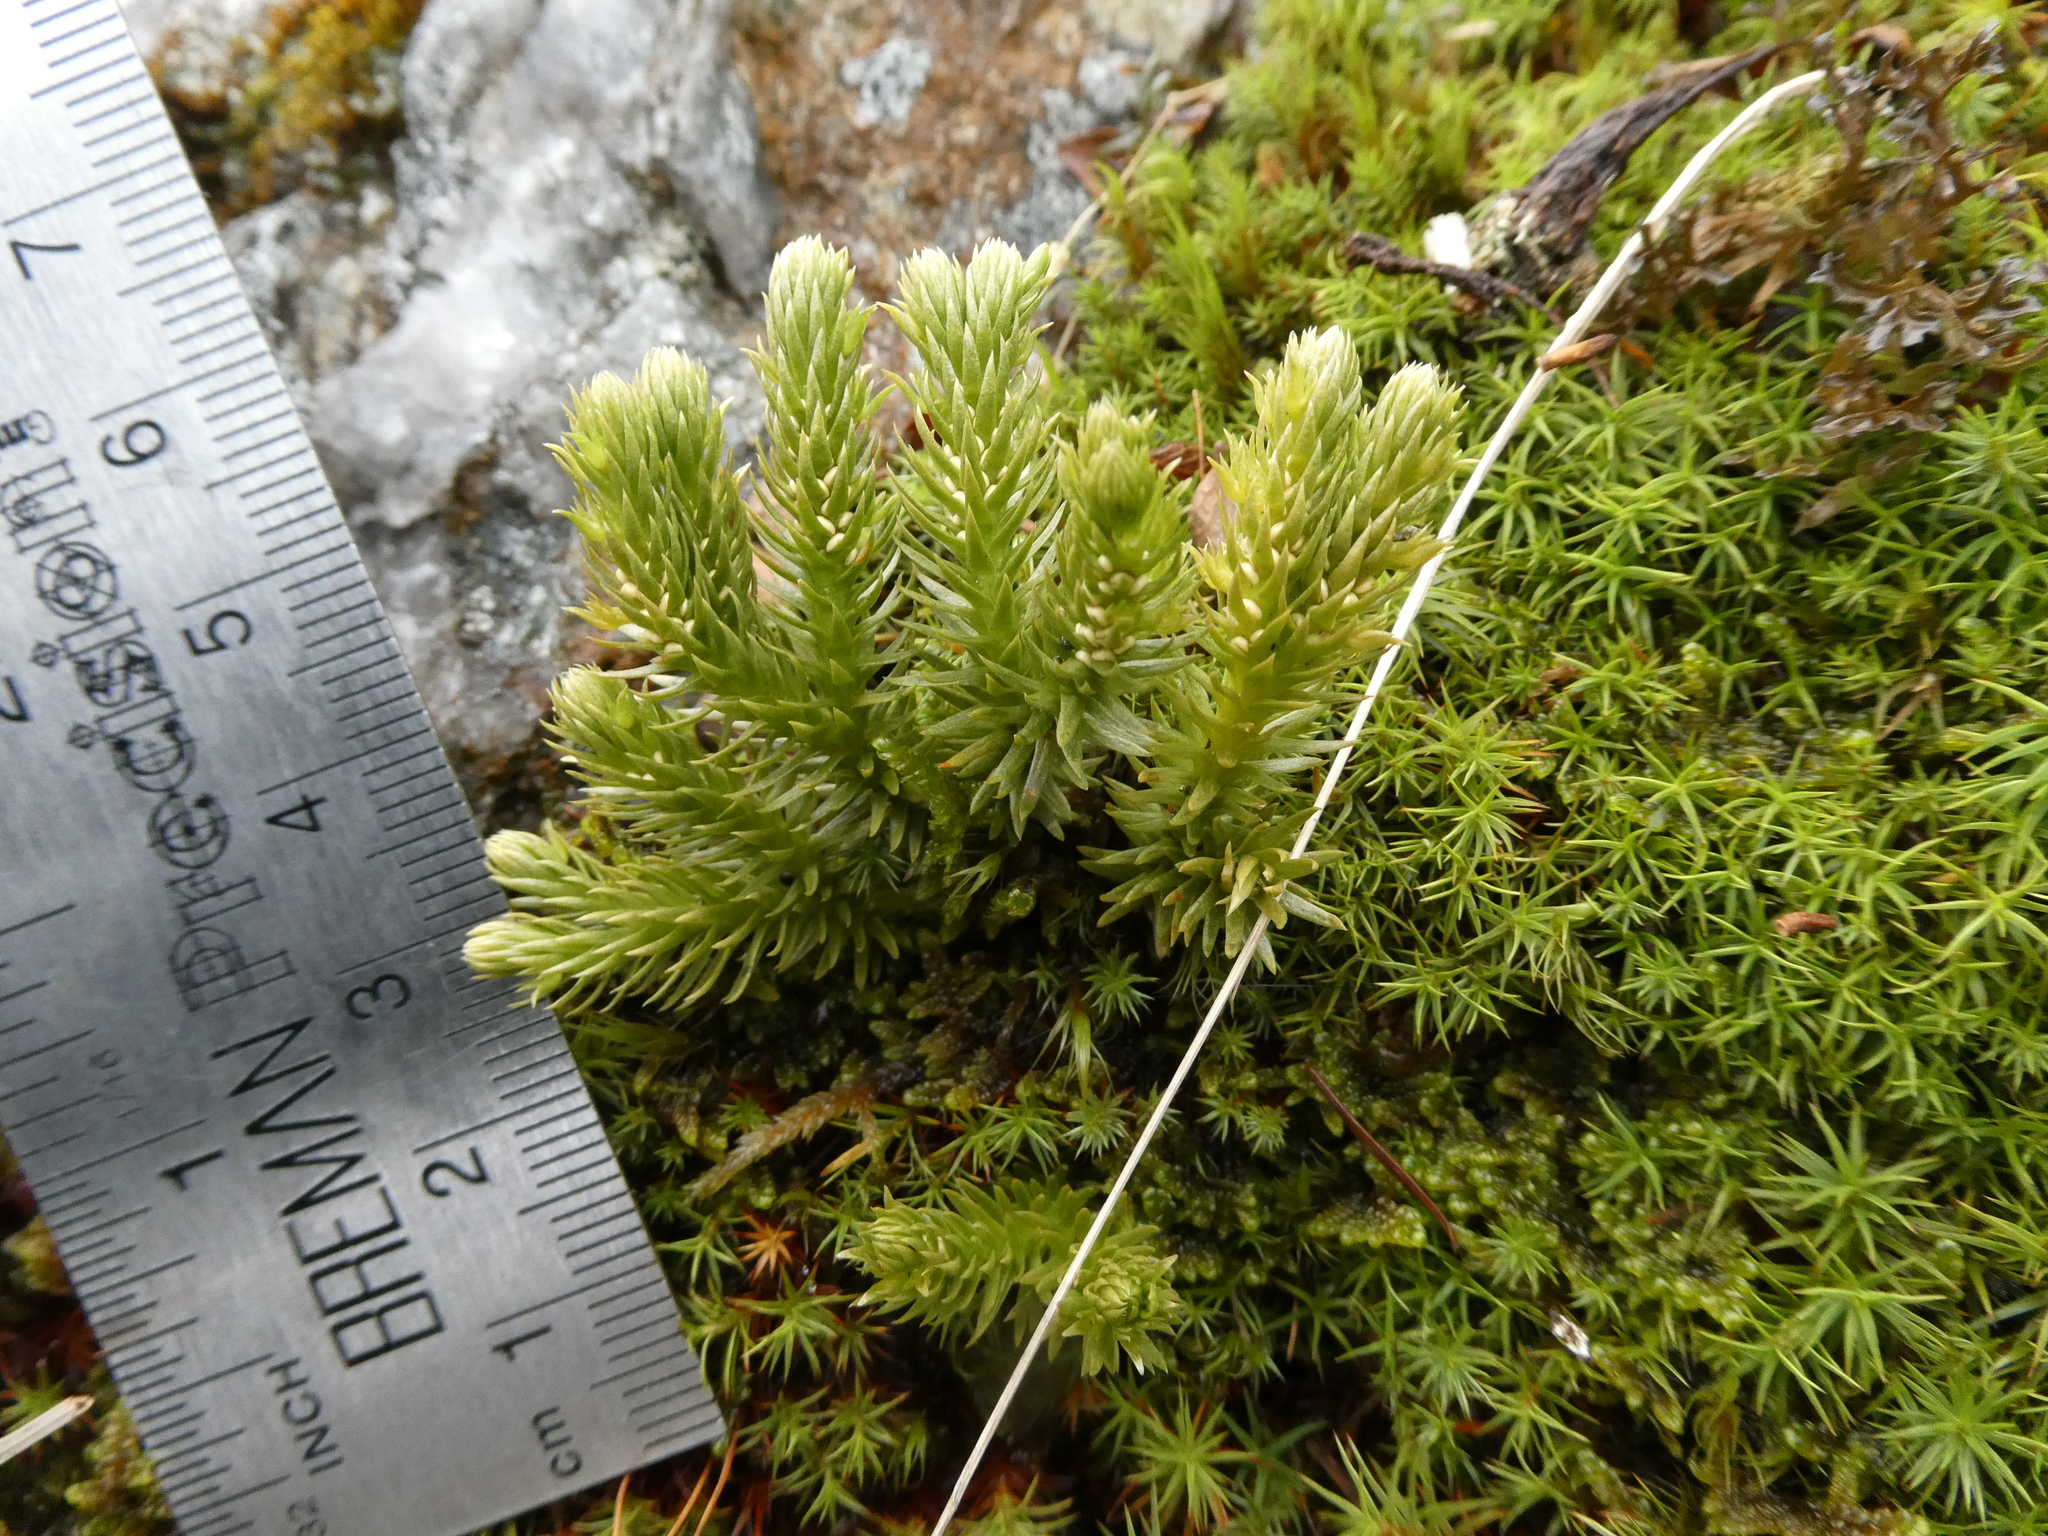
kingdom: Plantae
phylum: Tracheophyta
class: Lycopodiopsida
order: Lycopodiales
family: Lycopodiaceae
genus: Huperzia
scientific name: Huperzia selago
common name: Northern firmoss
